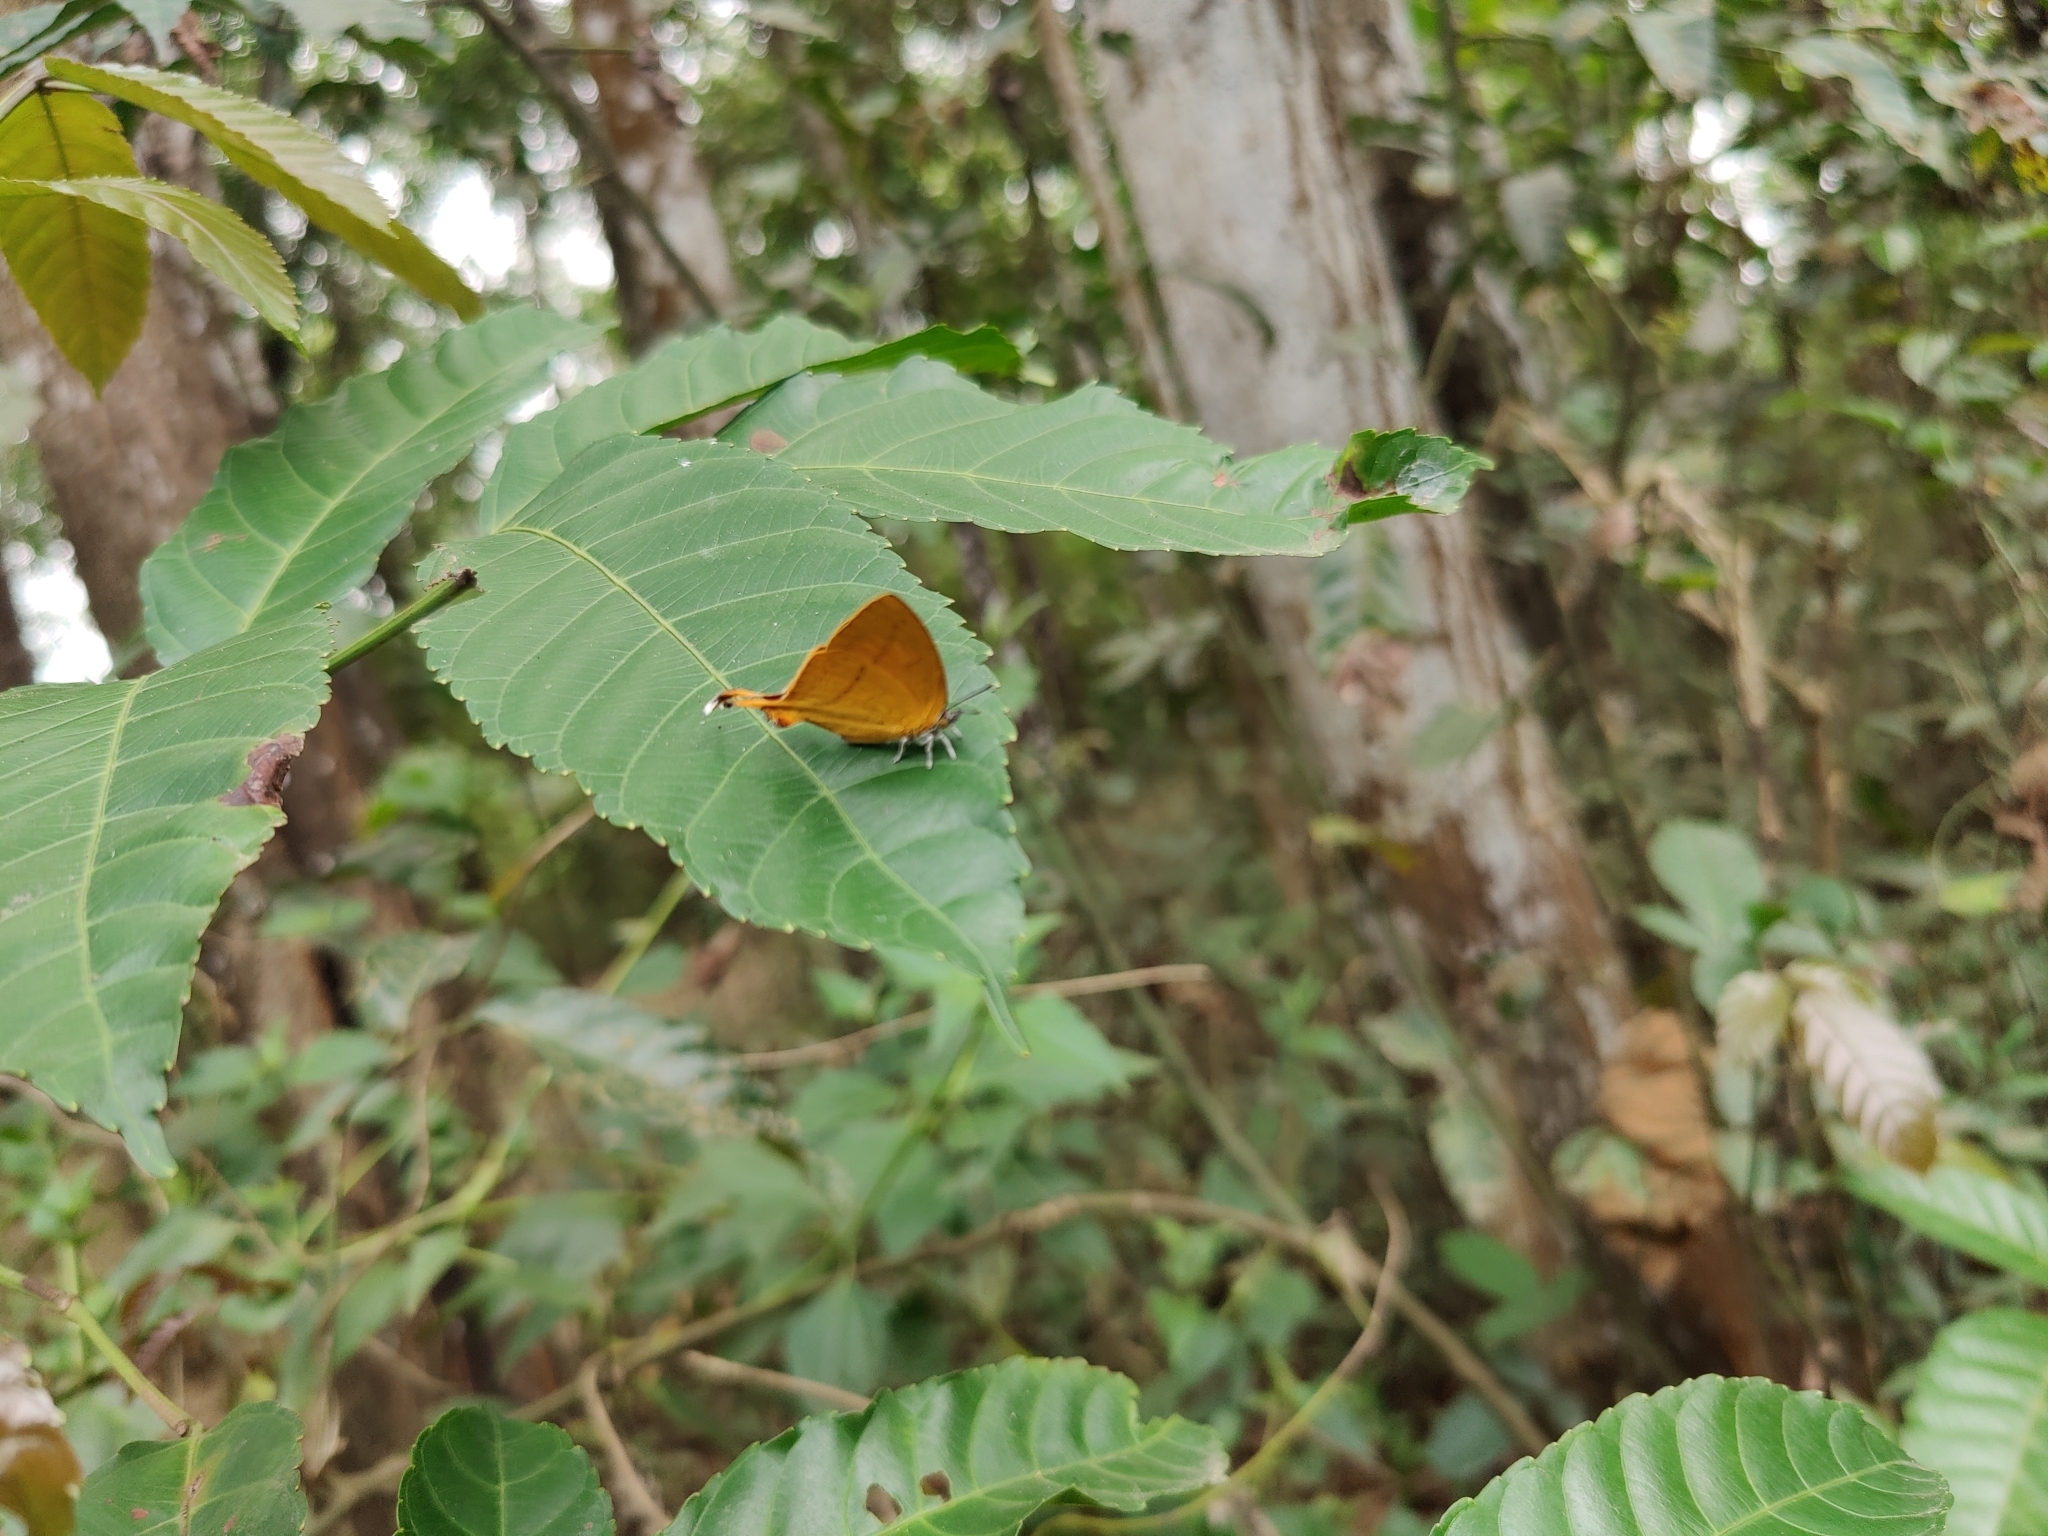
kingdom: Animalia
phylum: Arthropoda
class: Insecta
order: Lepidoptera
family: Lycaenidae
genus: Loxura
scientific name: Loxura atymnus
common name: Common yamfly
